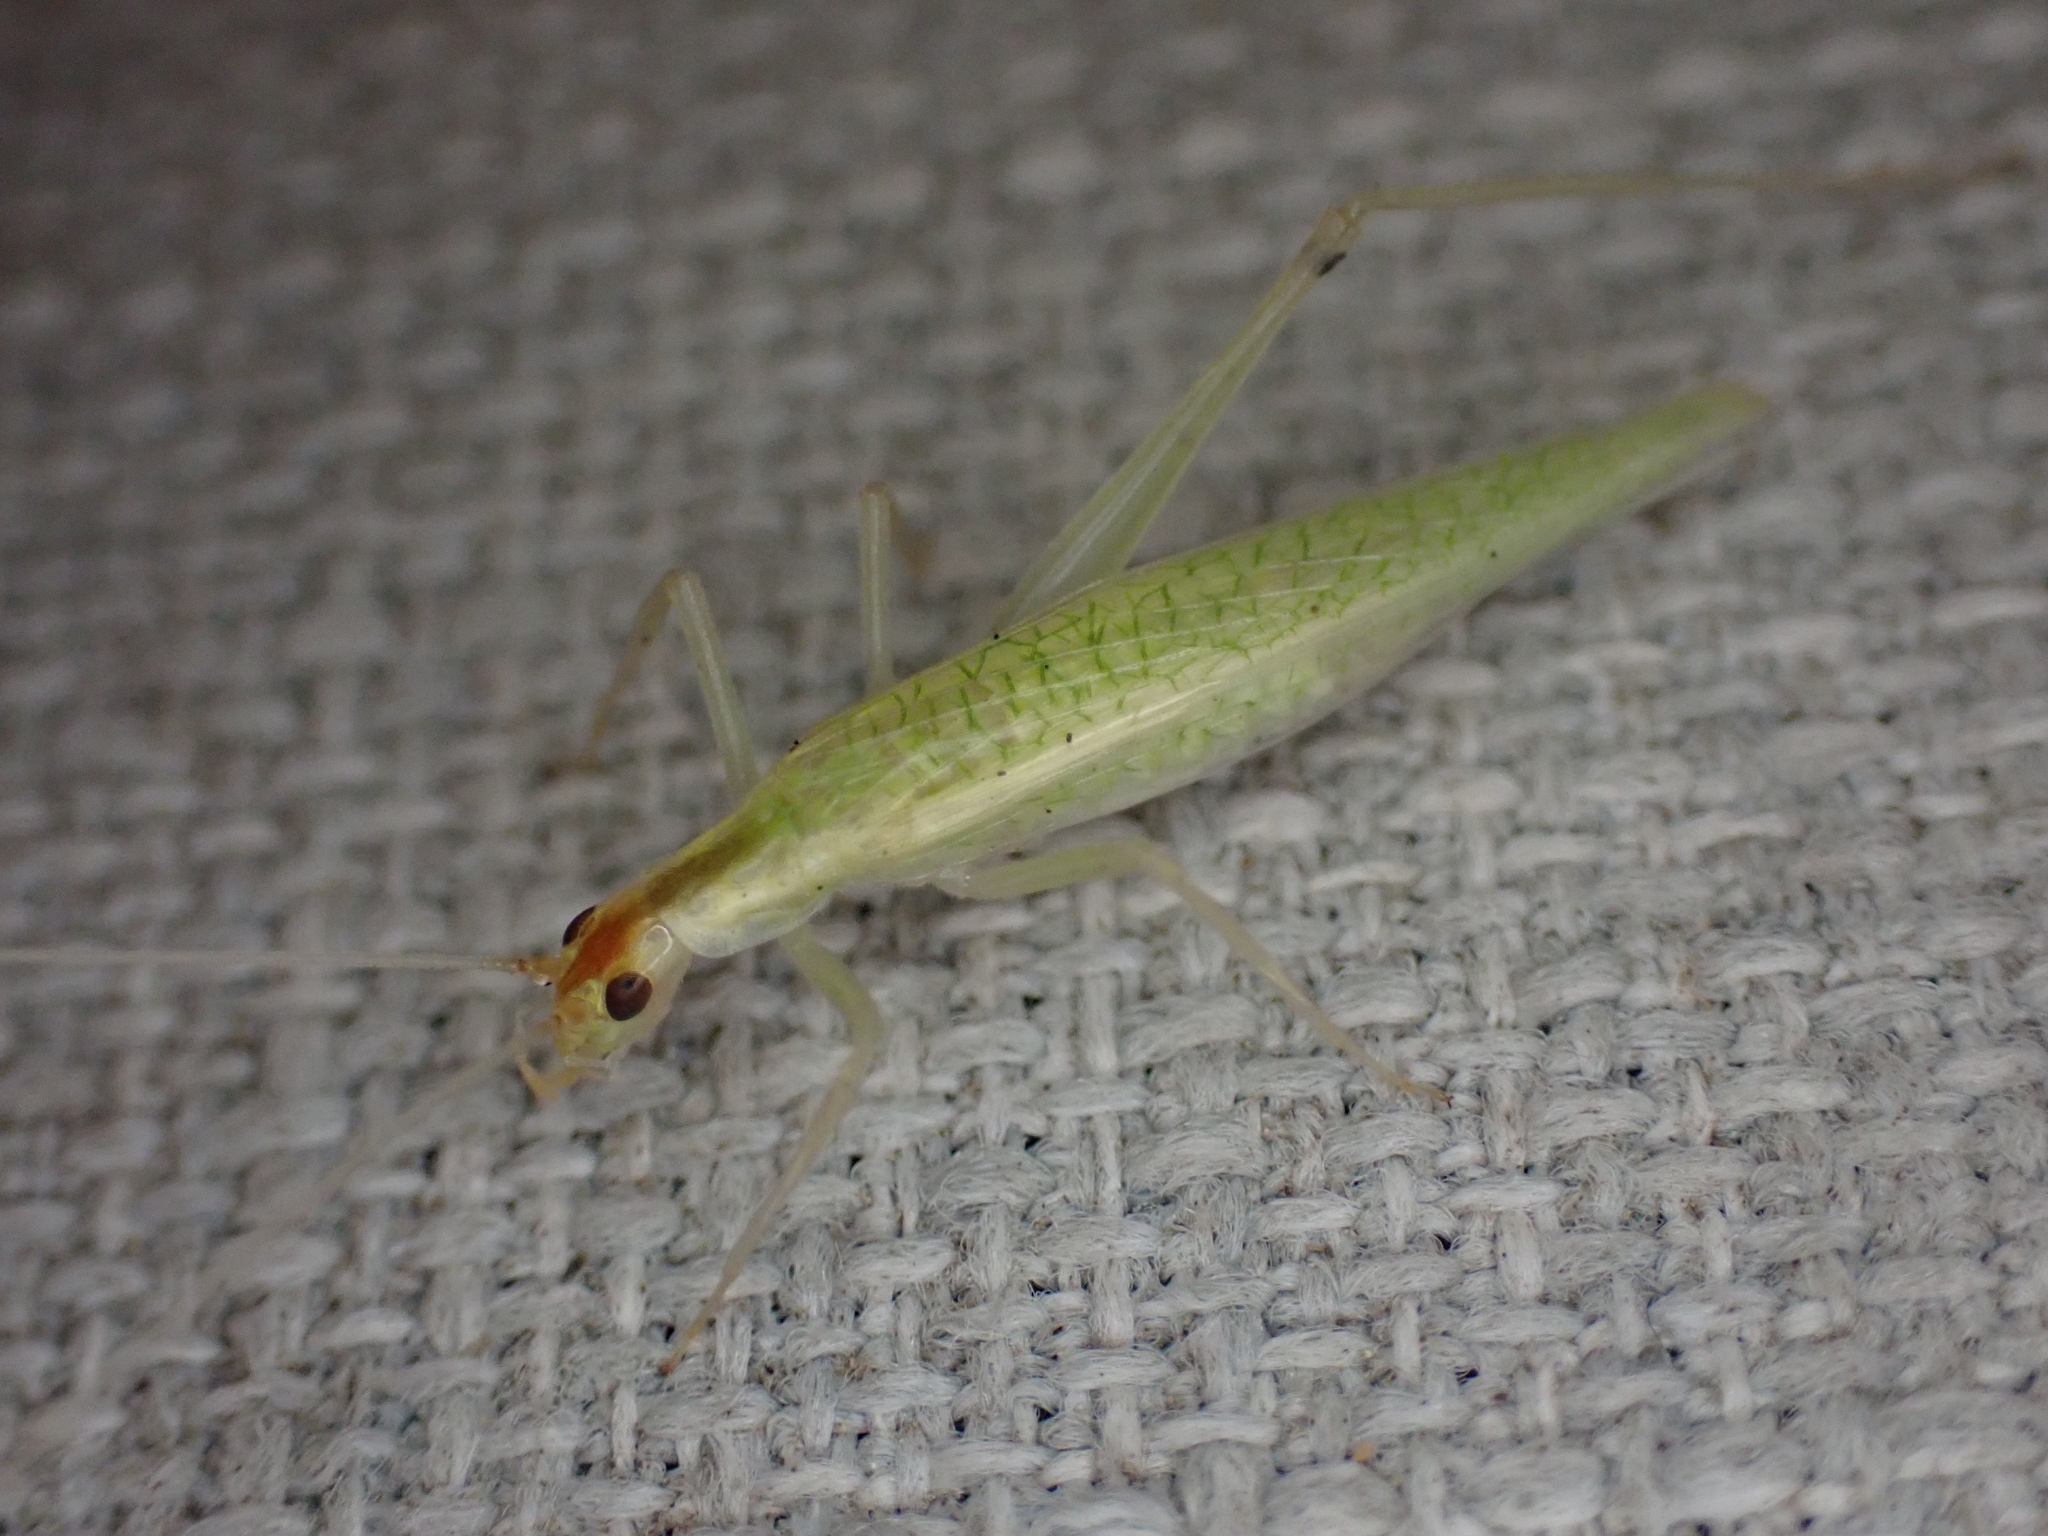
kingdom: Animalia
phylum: Arthropoda
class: Insecta
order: Orthoptera
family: Gryllidae
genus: Oecanthus
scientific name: Oecanthus niveus
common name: Narrow-winged tree cricket
